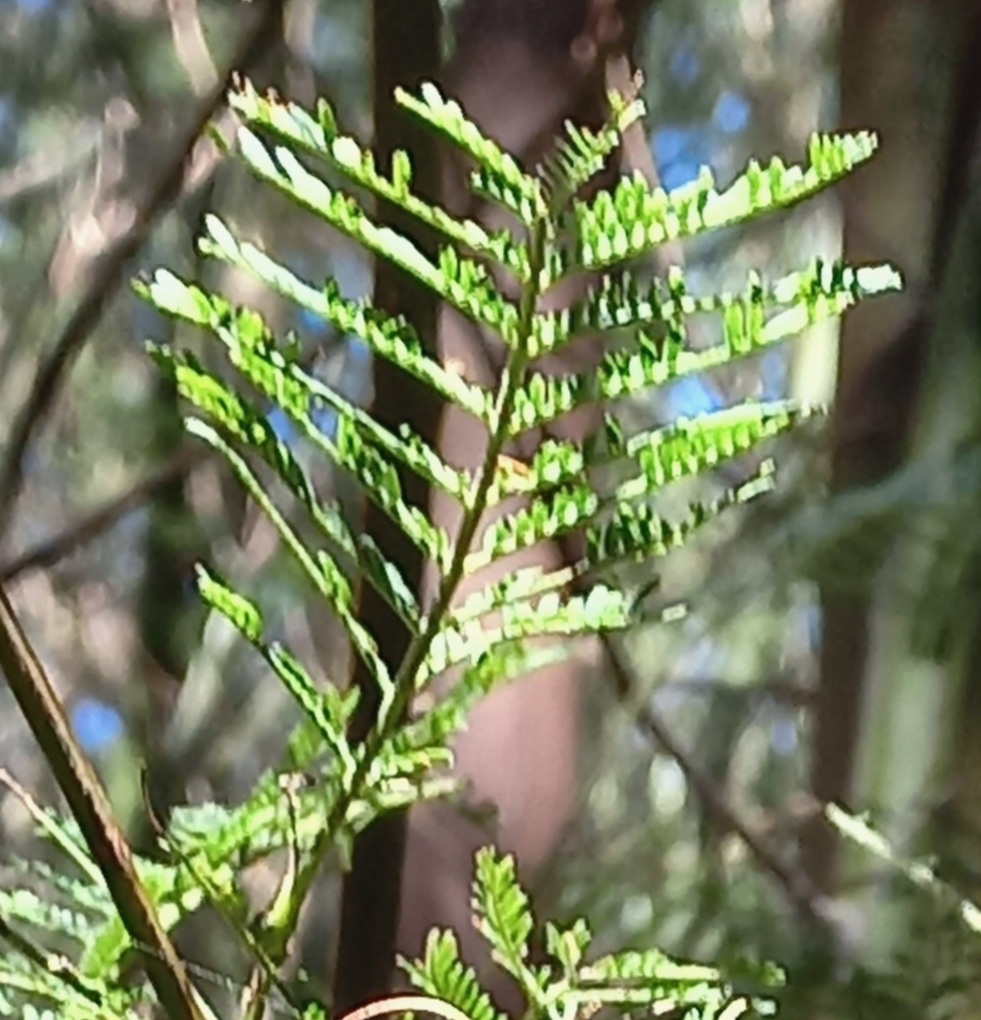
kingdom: Plantae
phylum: Tracheophyta
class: Magnoliopsida
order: Fabales
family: Fabaceae
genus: Acacia
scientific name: Acacia mearnsii
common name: Black wattle
